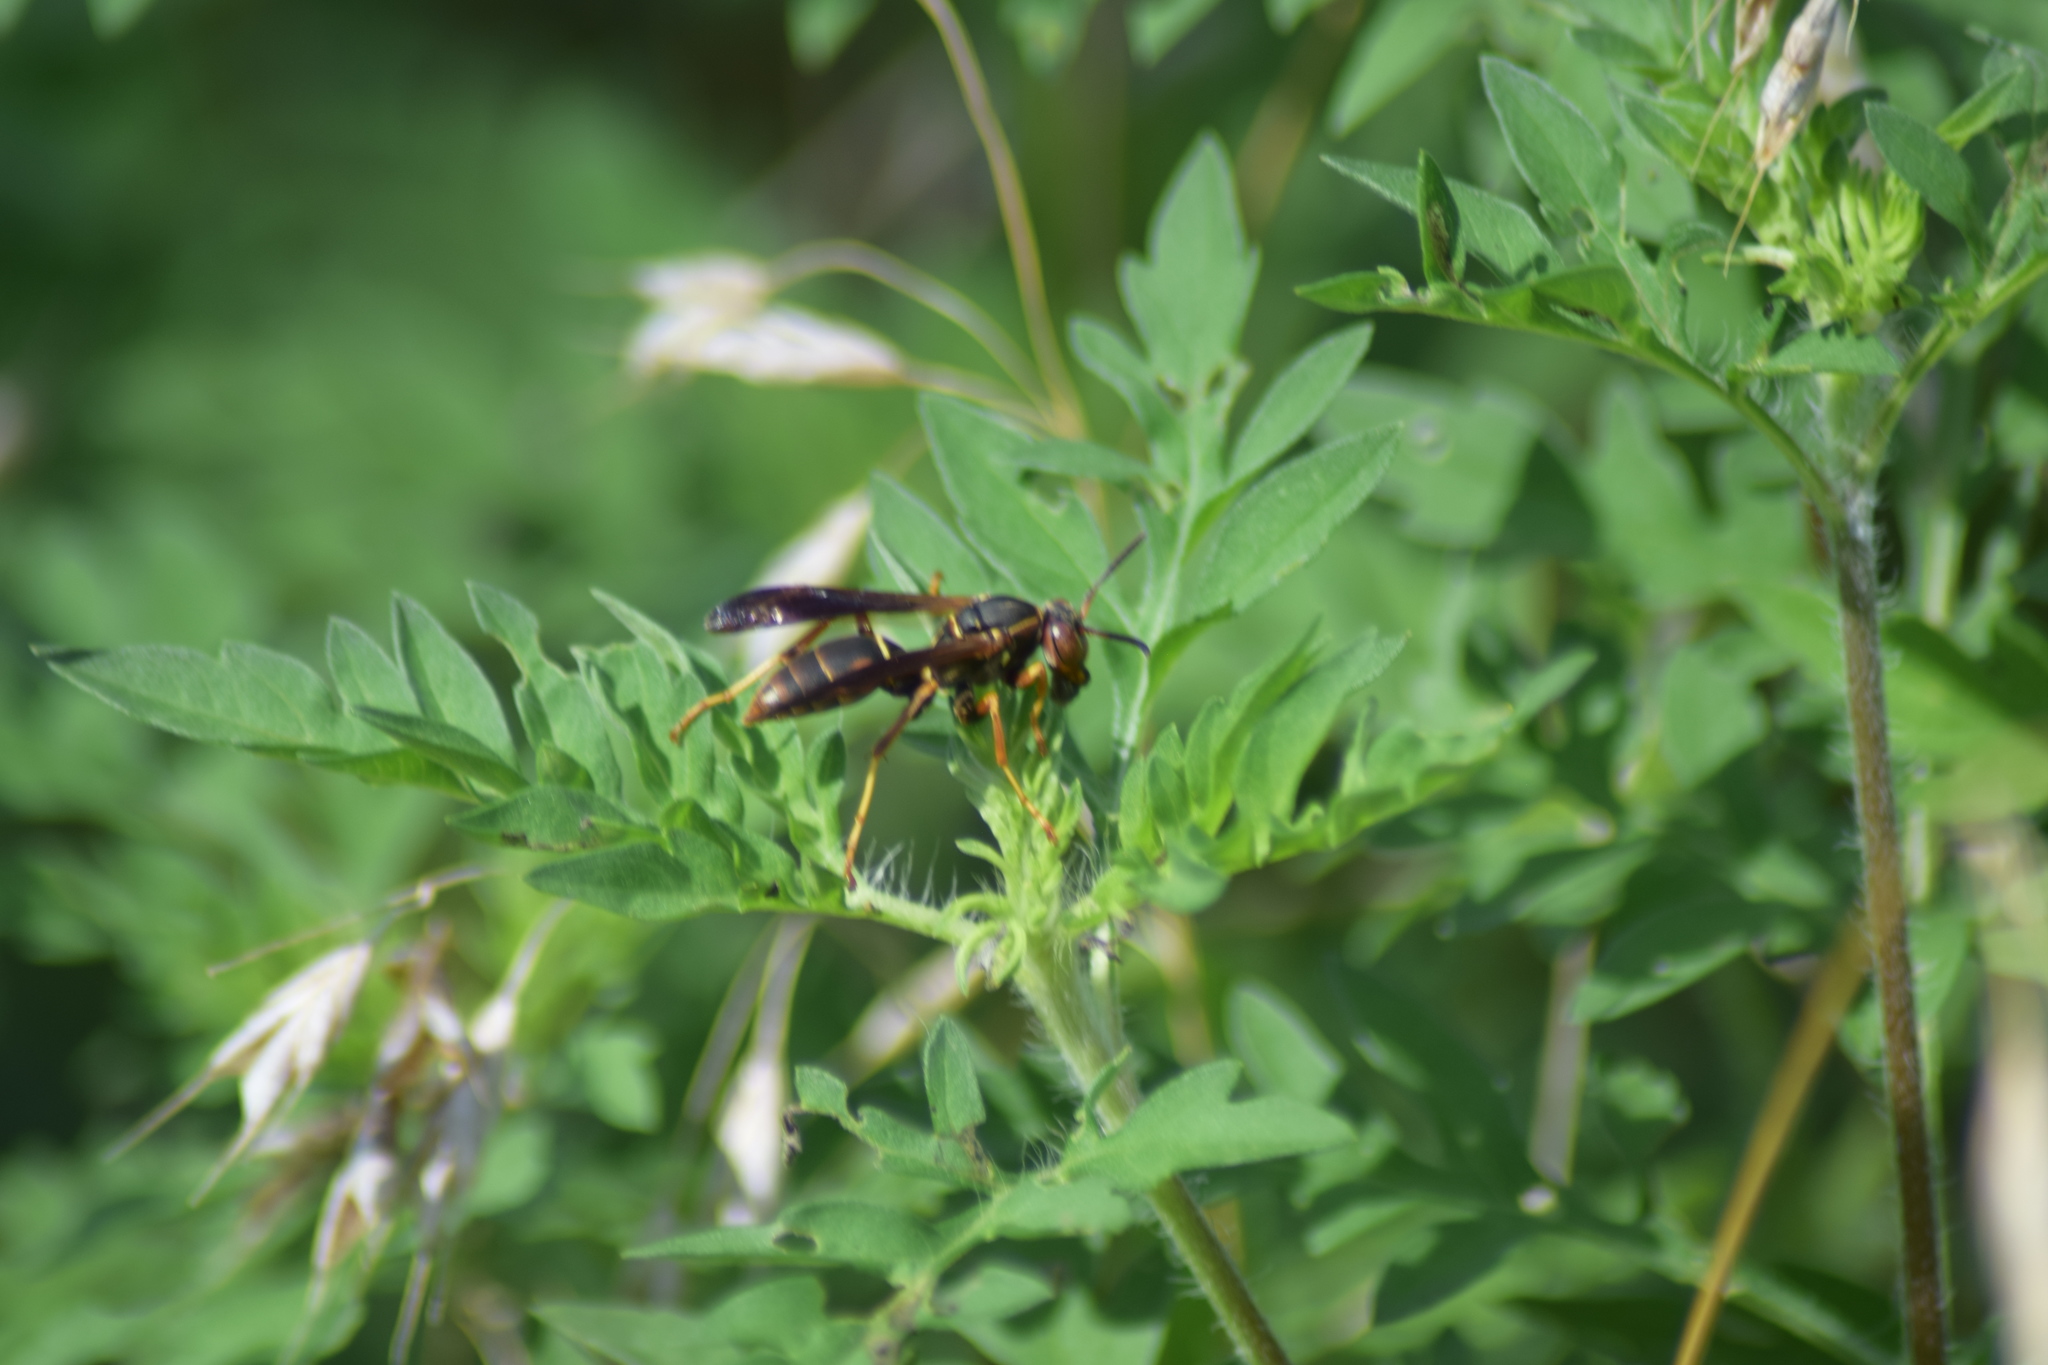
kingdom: Animalia
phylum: Arthropoda
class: Insecta
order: Hymenoptera
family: Eumenidae
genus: Polistes
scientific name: Polistes fuscatus
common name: Dark paper wasp
